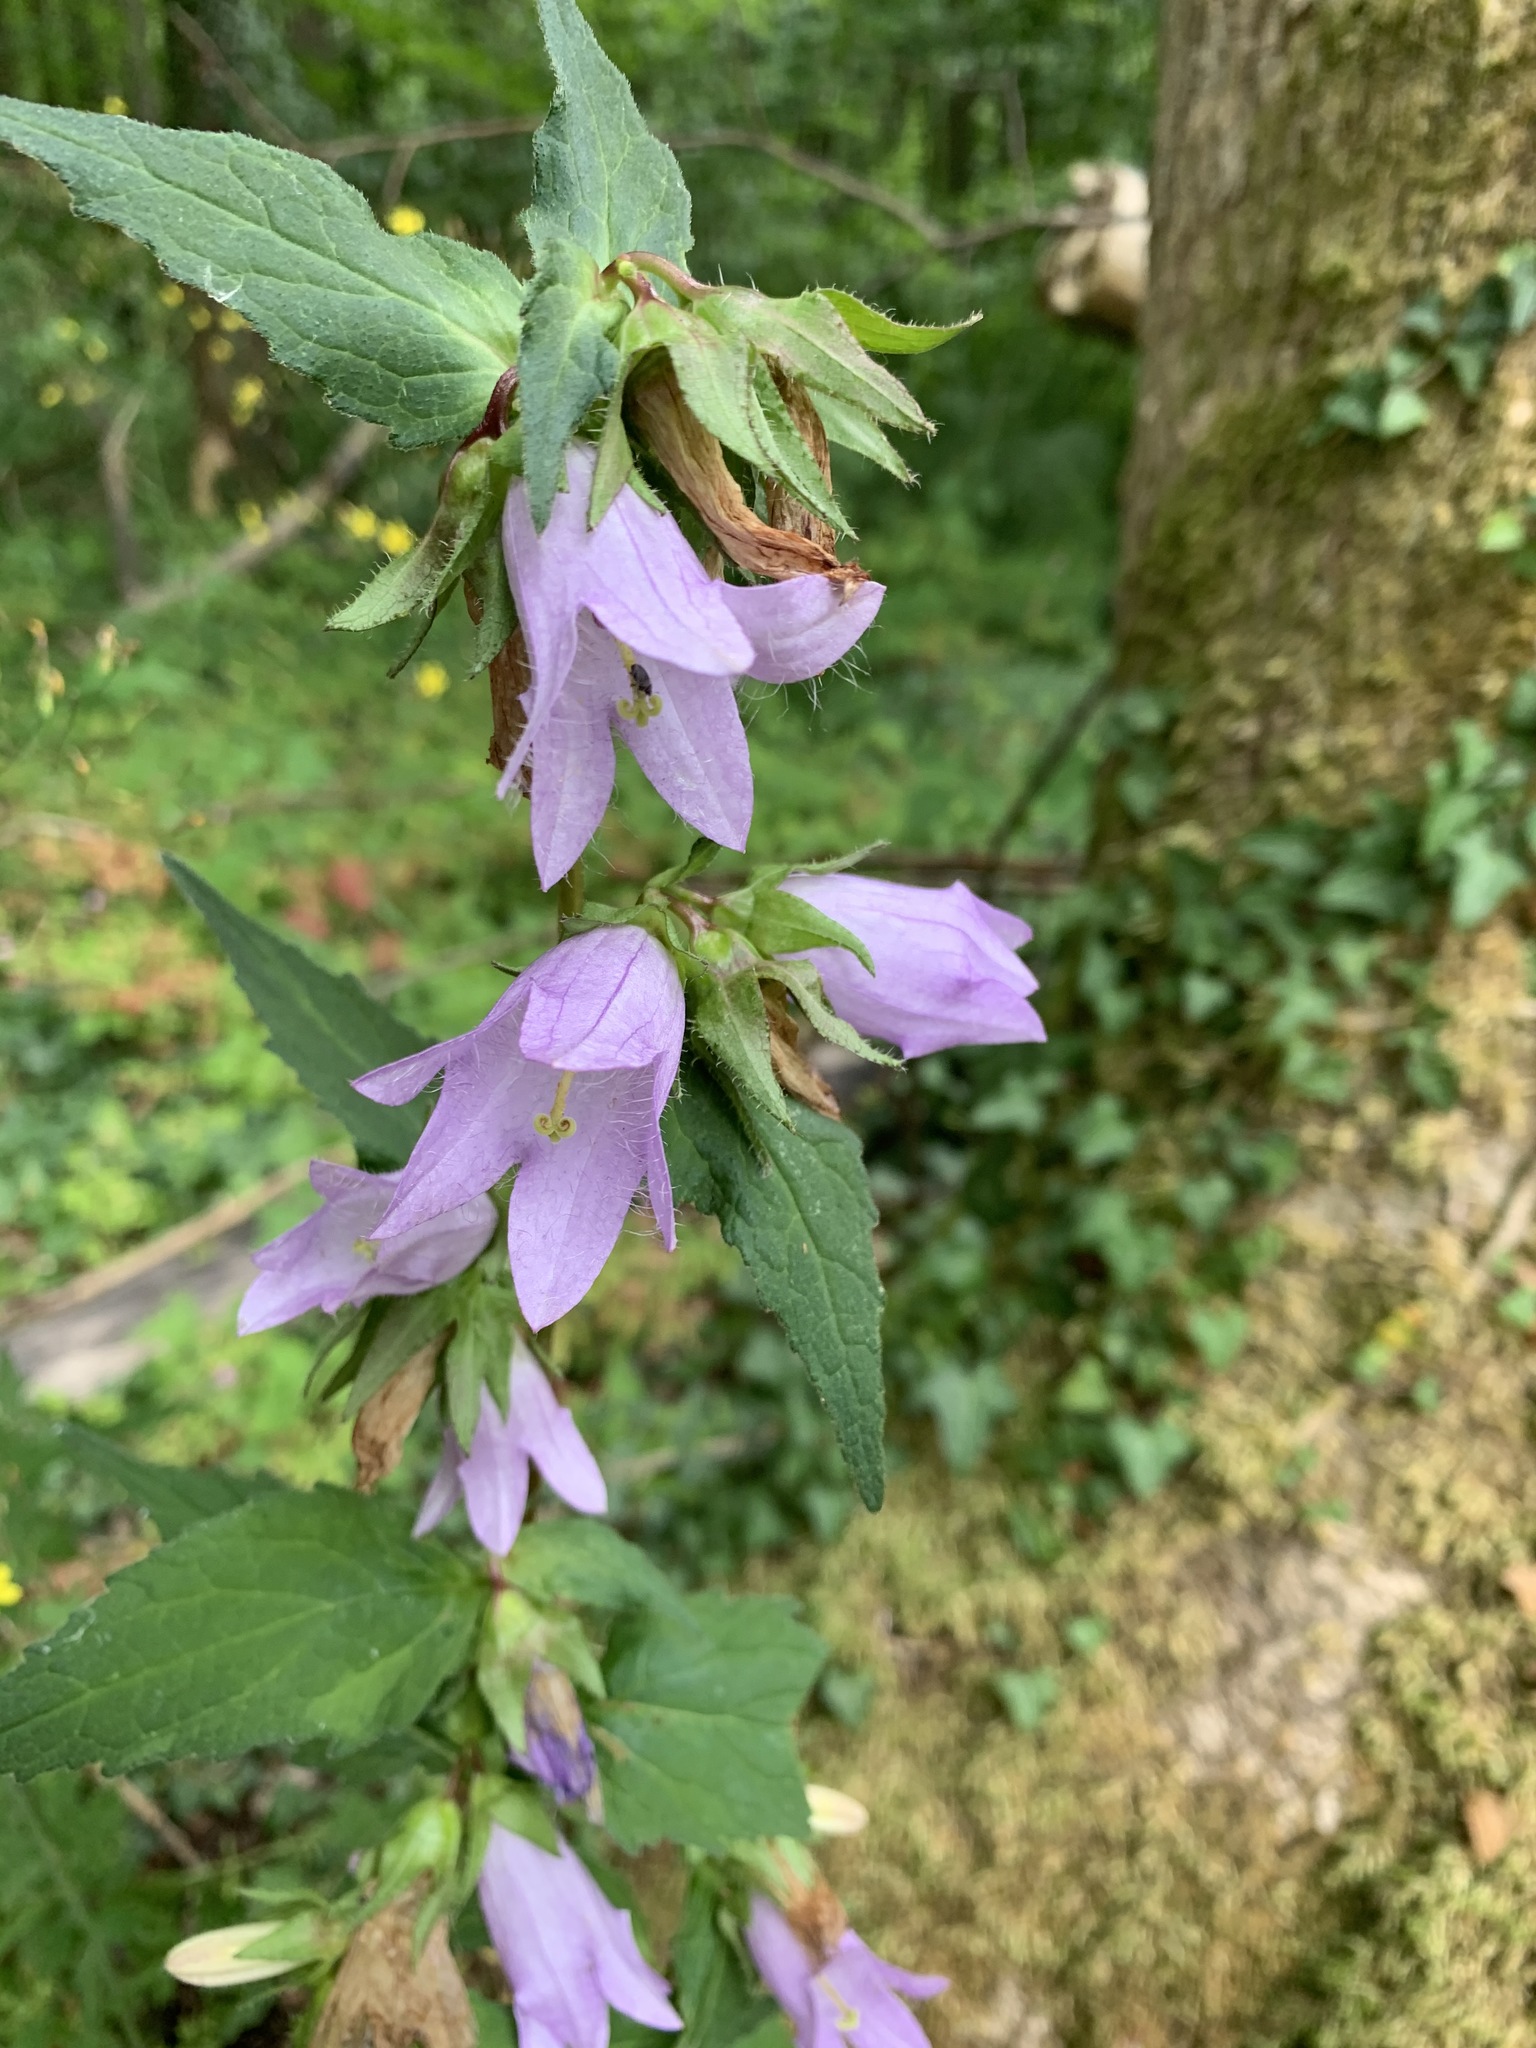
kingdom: Plantae
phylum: Tracheophyta
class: Magnoliopsida
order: Asterales
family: Campanulaceae
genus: Campanula
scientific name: Campanula trachelium
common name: Nettle-leaved bellflower
